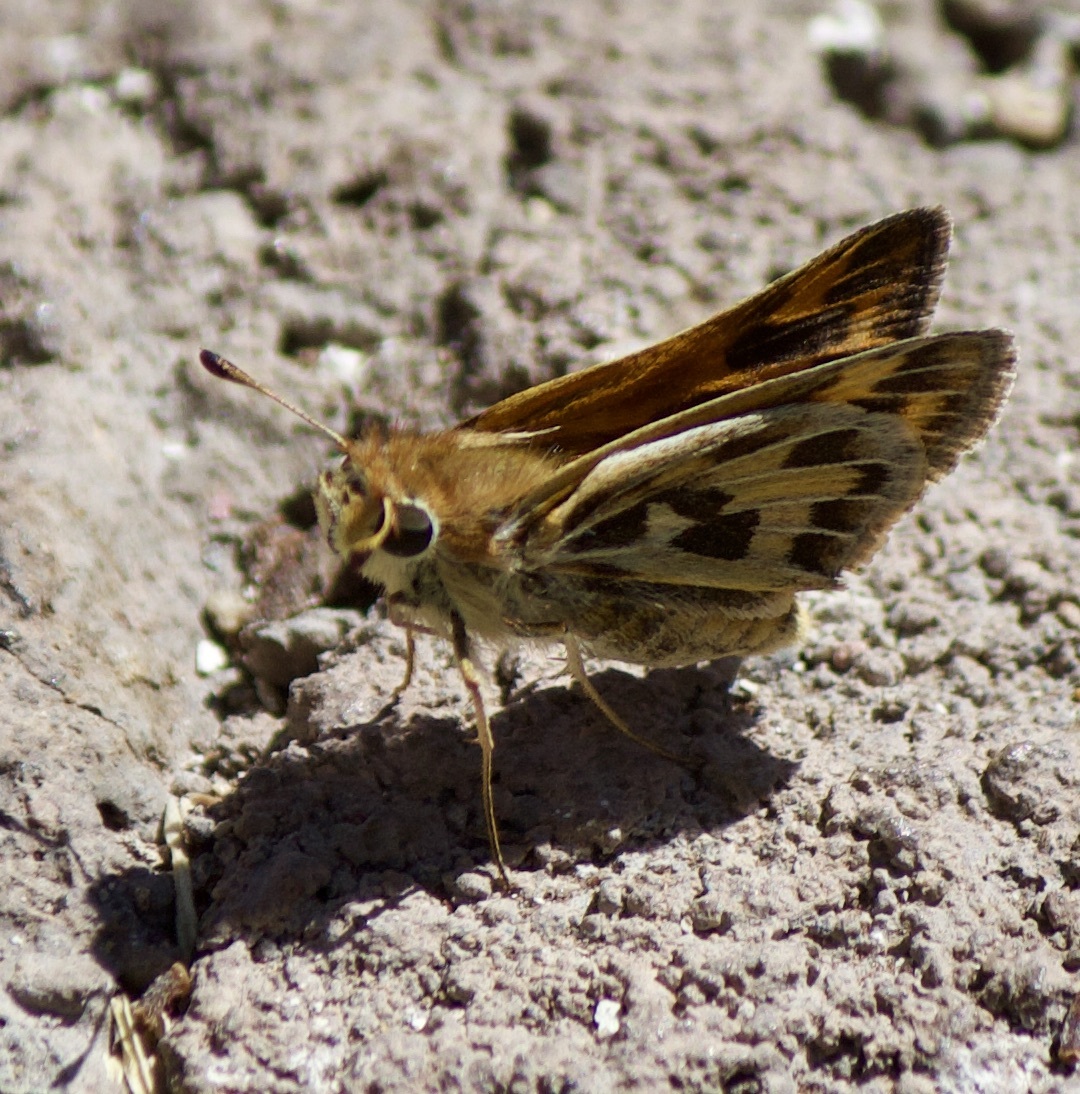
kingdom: Animalia
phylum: Arthropoda
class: Insecta
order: Lepidoptera
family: Hesperiidae
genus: Hylephila
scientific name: Hylephila fasciolata
